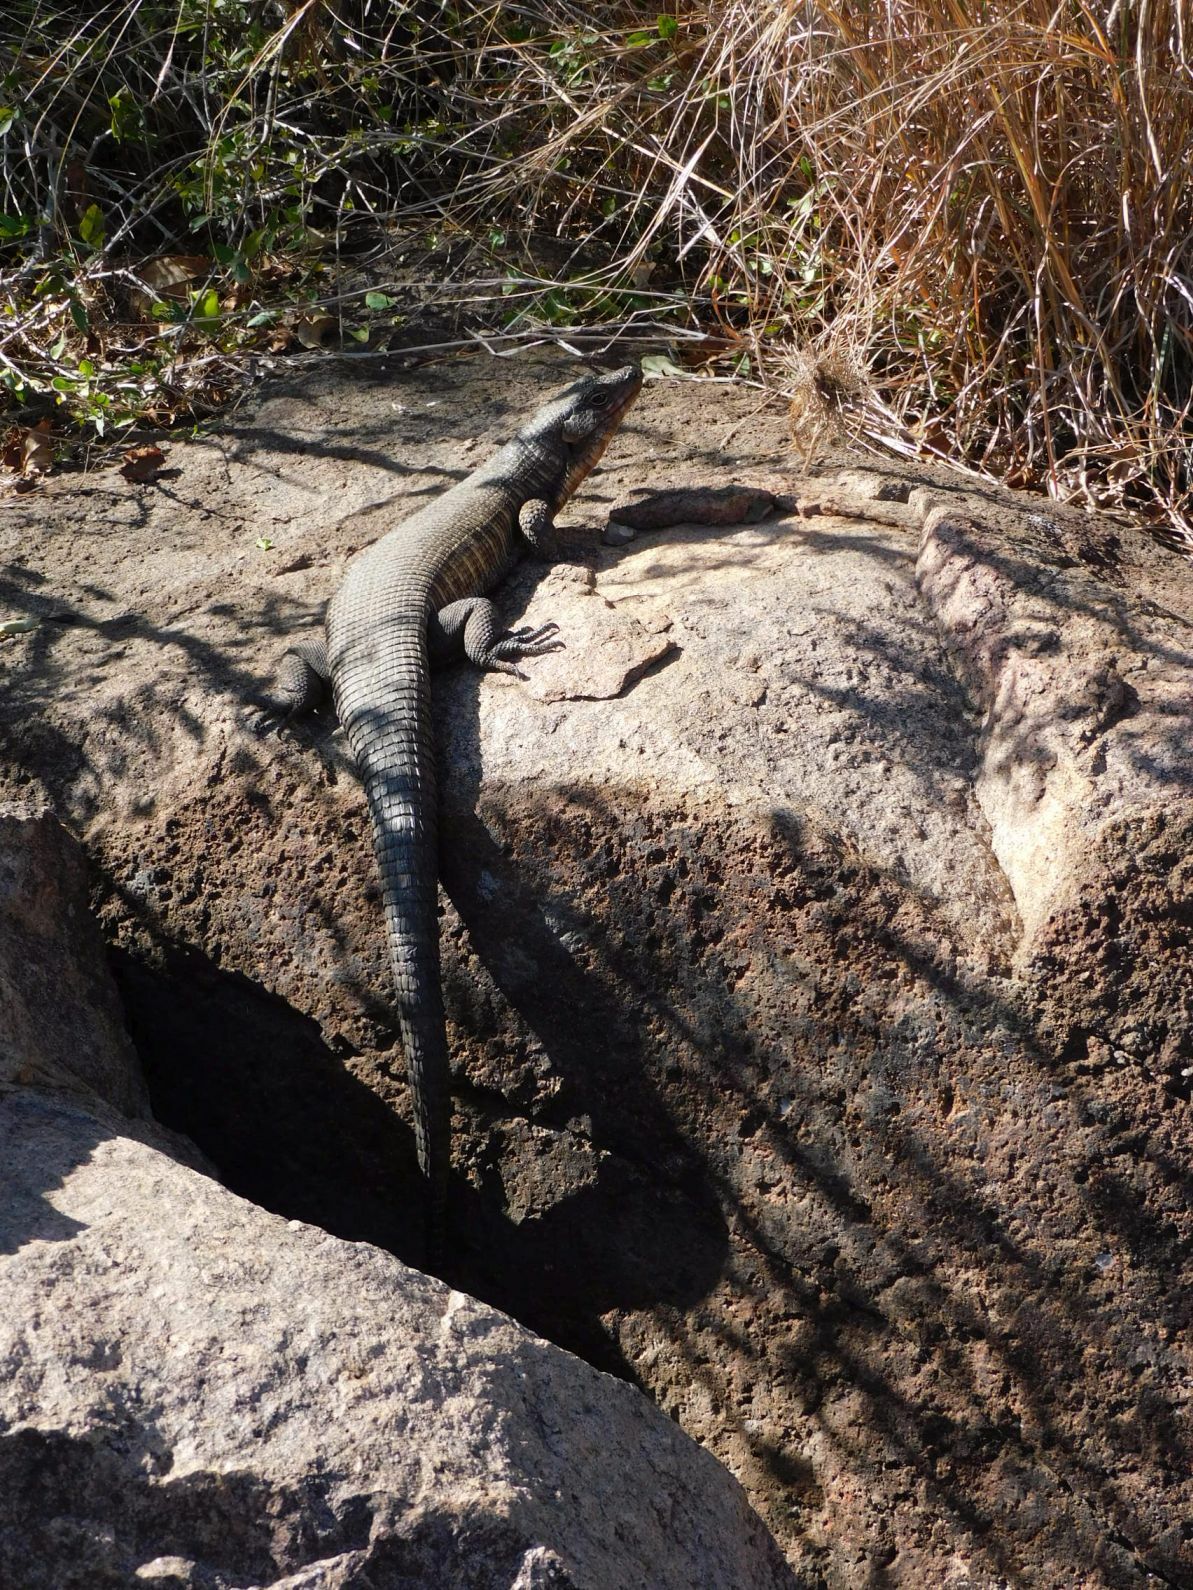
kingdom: Animalia
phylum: Chordata
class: Squamata
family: Gerrhosauridae
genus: Matobosaurus
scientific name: Matobosaurus validus
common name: Common giant plated lizard
